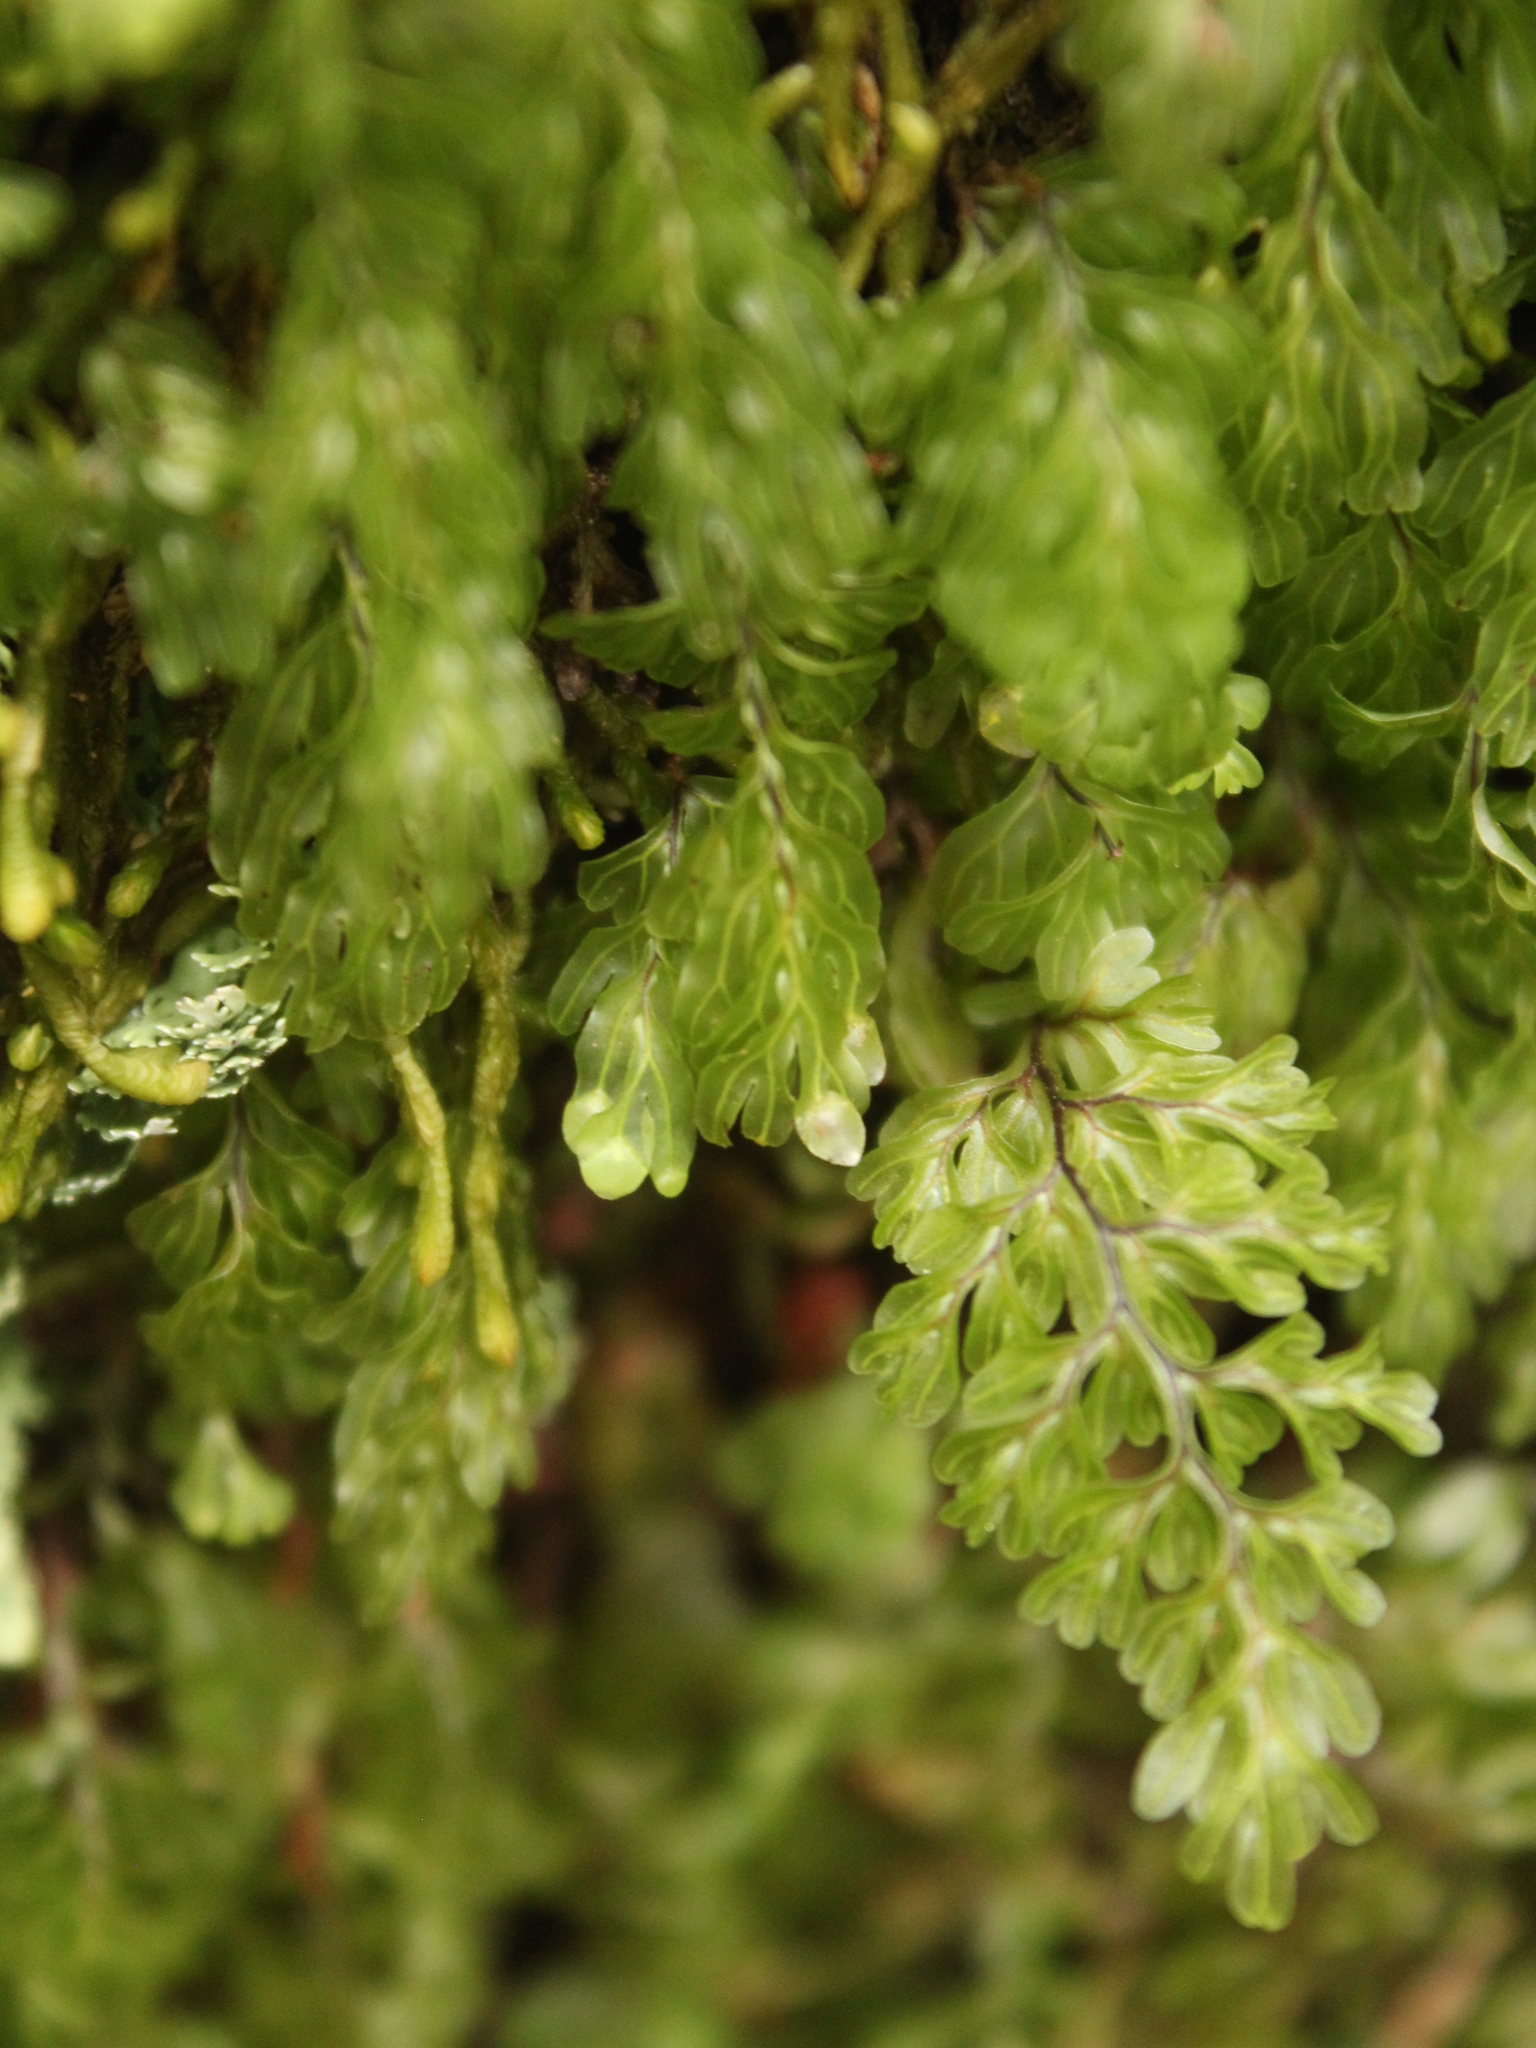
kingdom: Plantae
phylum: Tracheophyta
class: Polypodiopsida
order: Hymenophyllales
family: Hymenophyllaceae
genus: Hymenophyllum
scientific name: Hymenophyllum rarum
